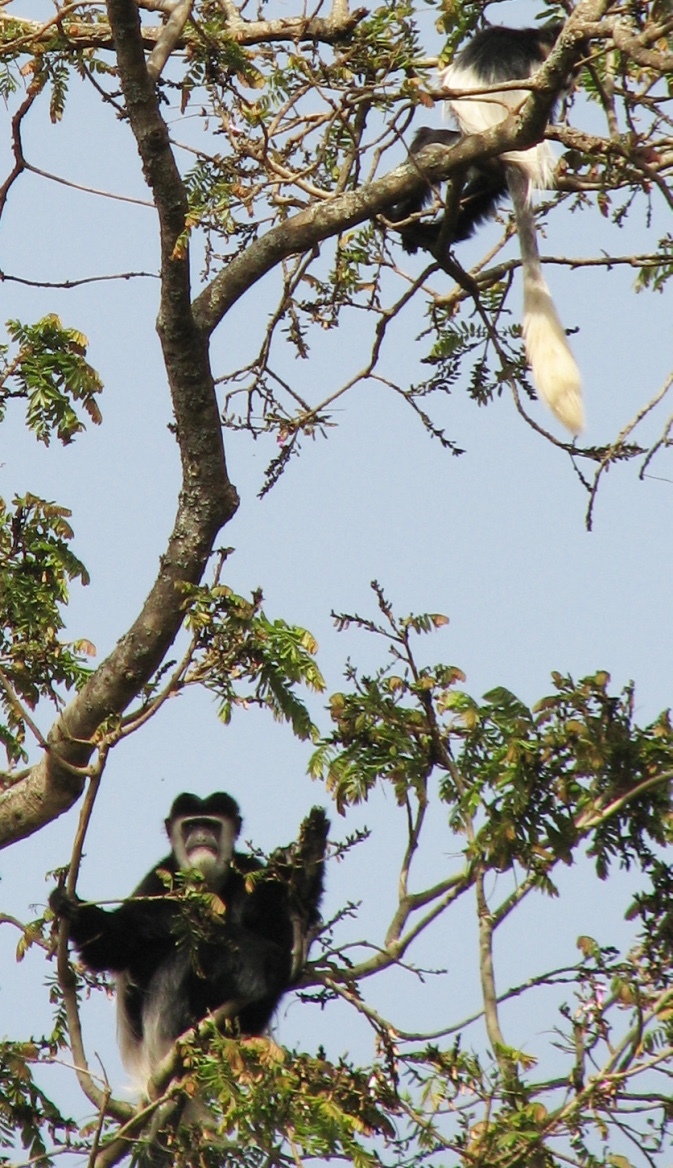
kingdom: Animalia
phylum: Chordata
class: Mammalia
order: Primates
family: Cercopithecidae
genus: Colobus
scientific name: Colobus guereza
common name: Mantled guereza
